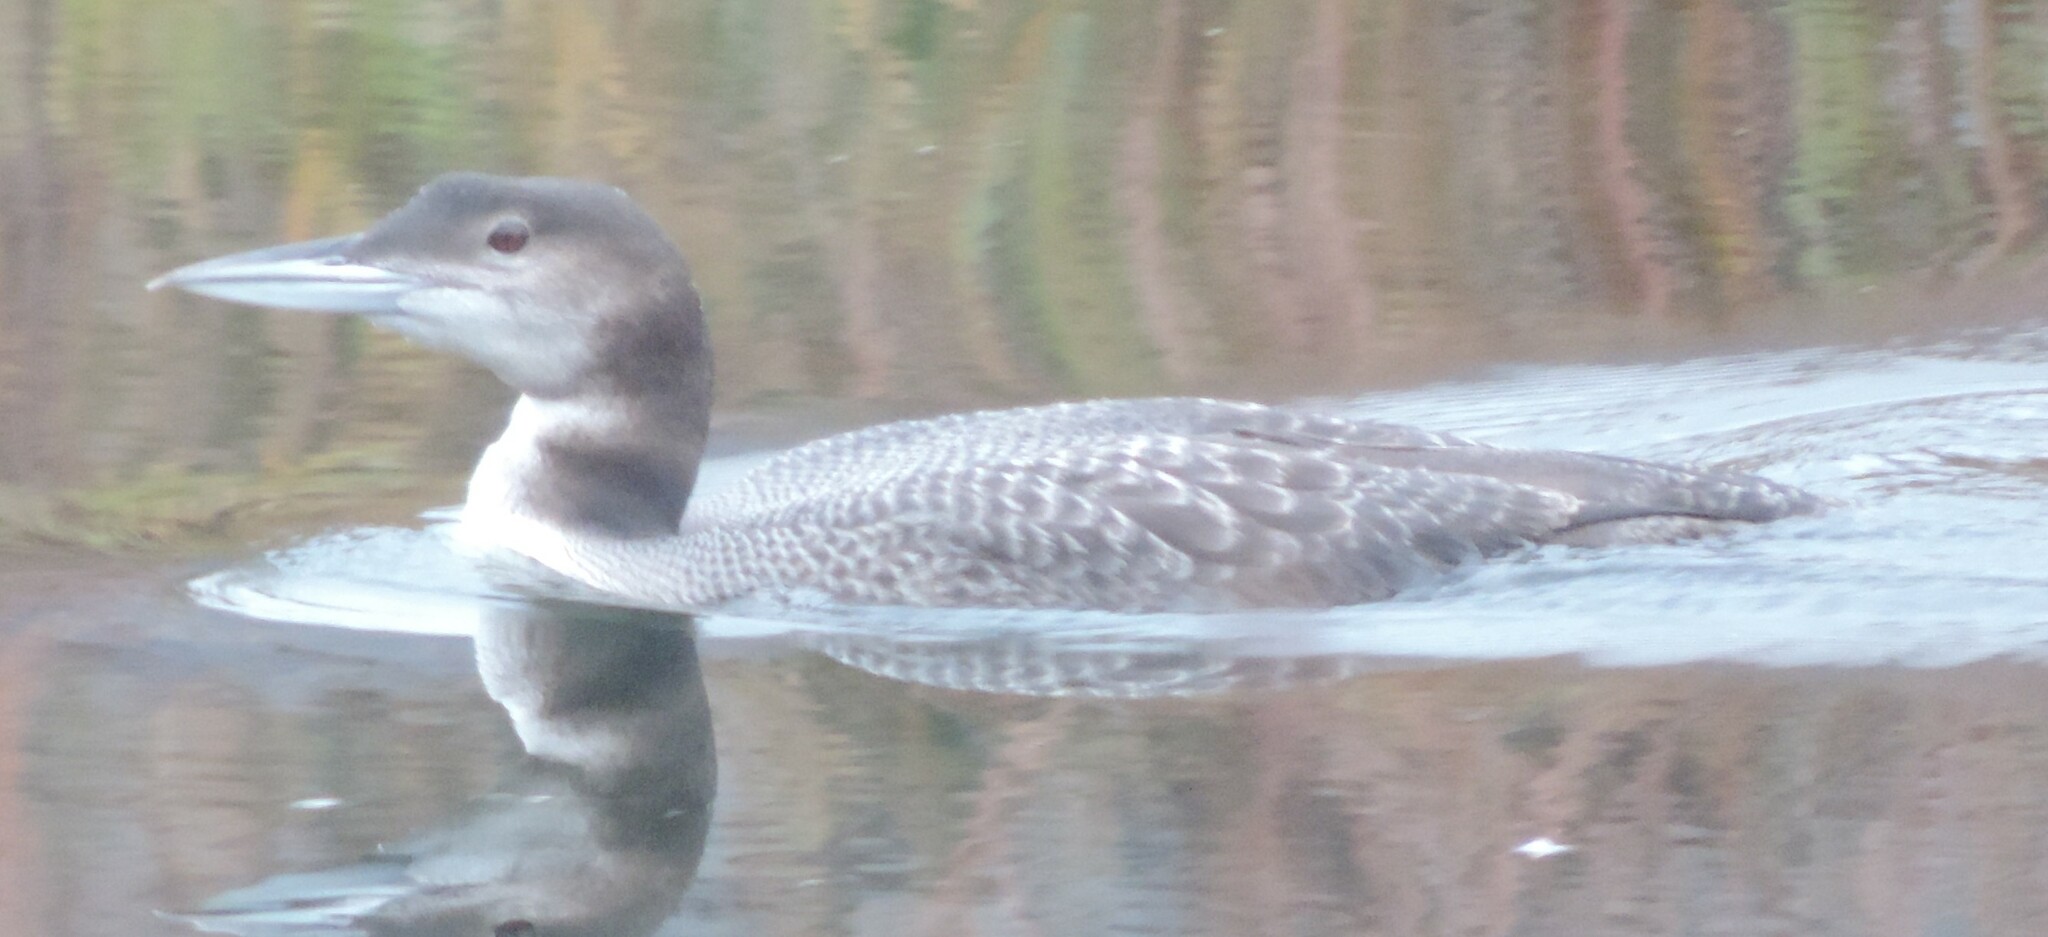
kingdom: Animalia
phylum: Chordata
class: Aves
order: Gaviiformes
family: Gaviidae
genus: Gavia
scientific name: Gavia immer
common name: Common loon
